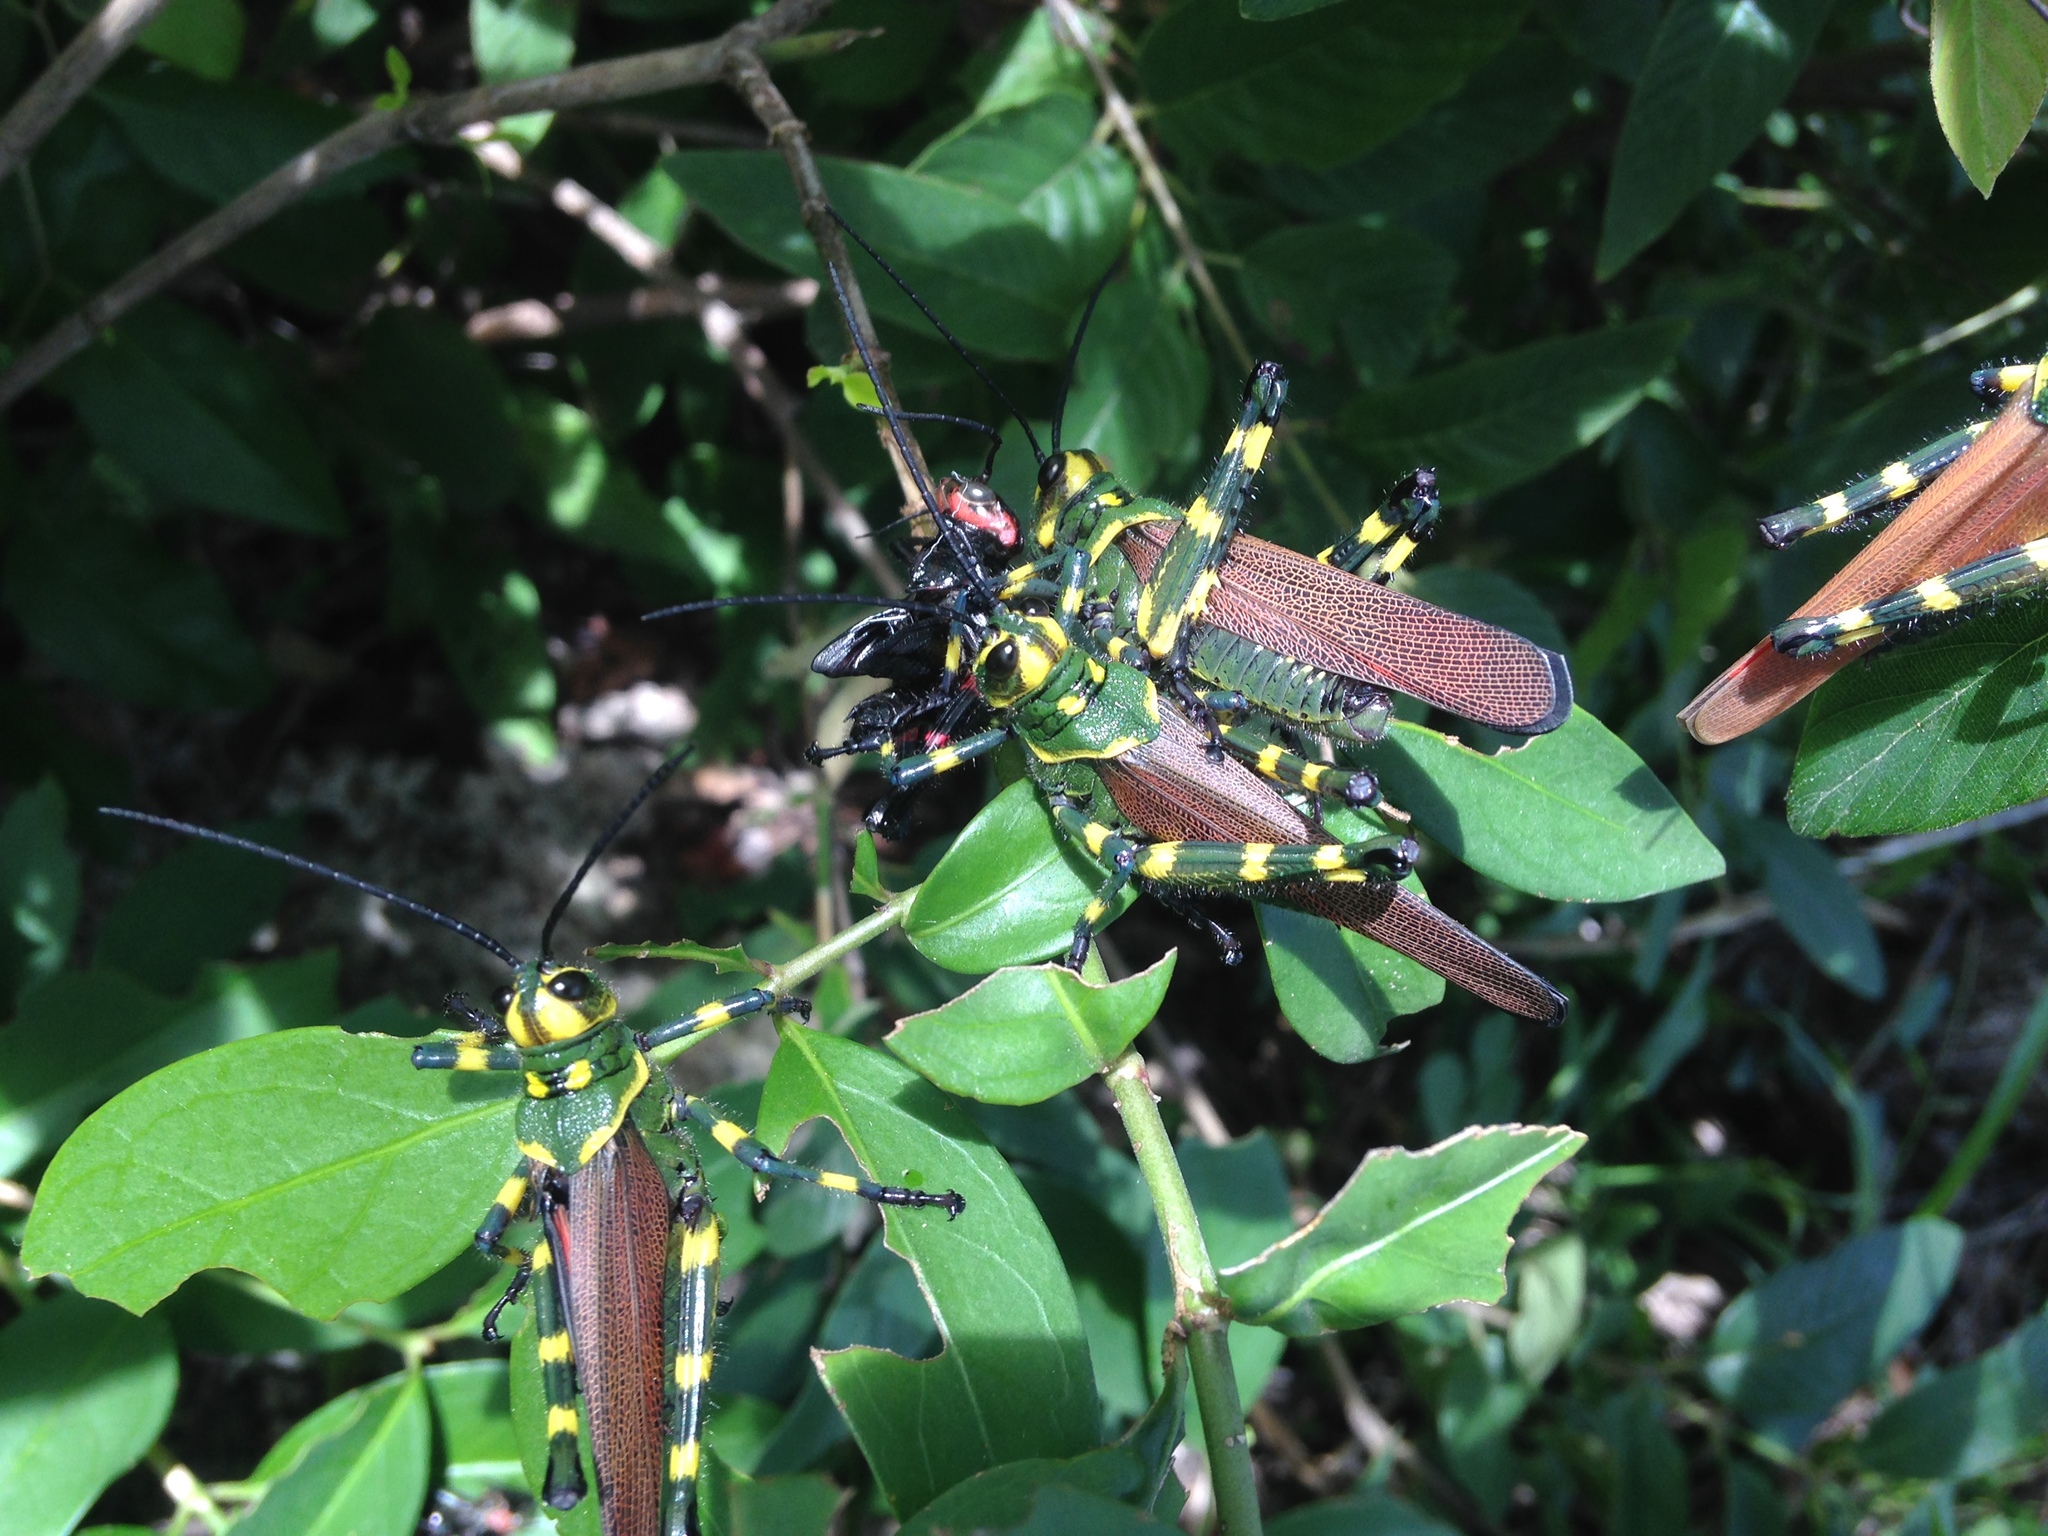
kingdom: Animalia
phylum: Arthropoda
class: Insecta
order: Orthoptera
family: Romaleidae
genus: Chromacris
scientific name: Chromacris miles
